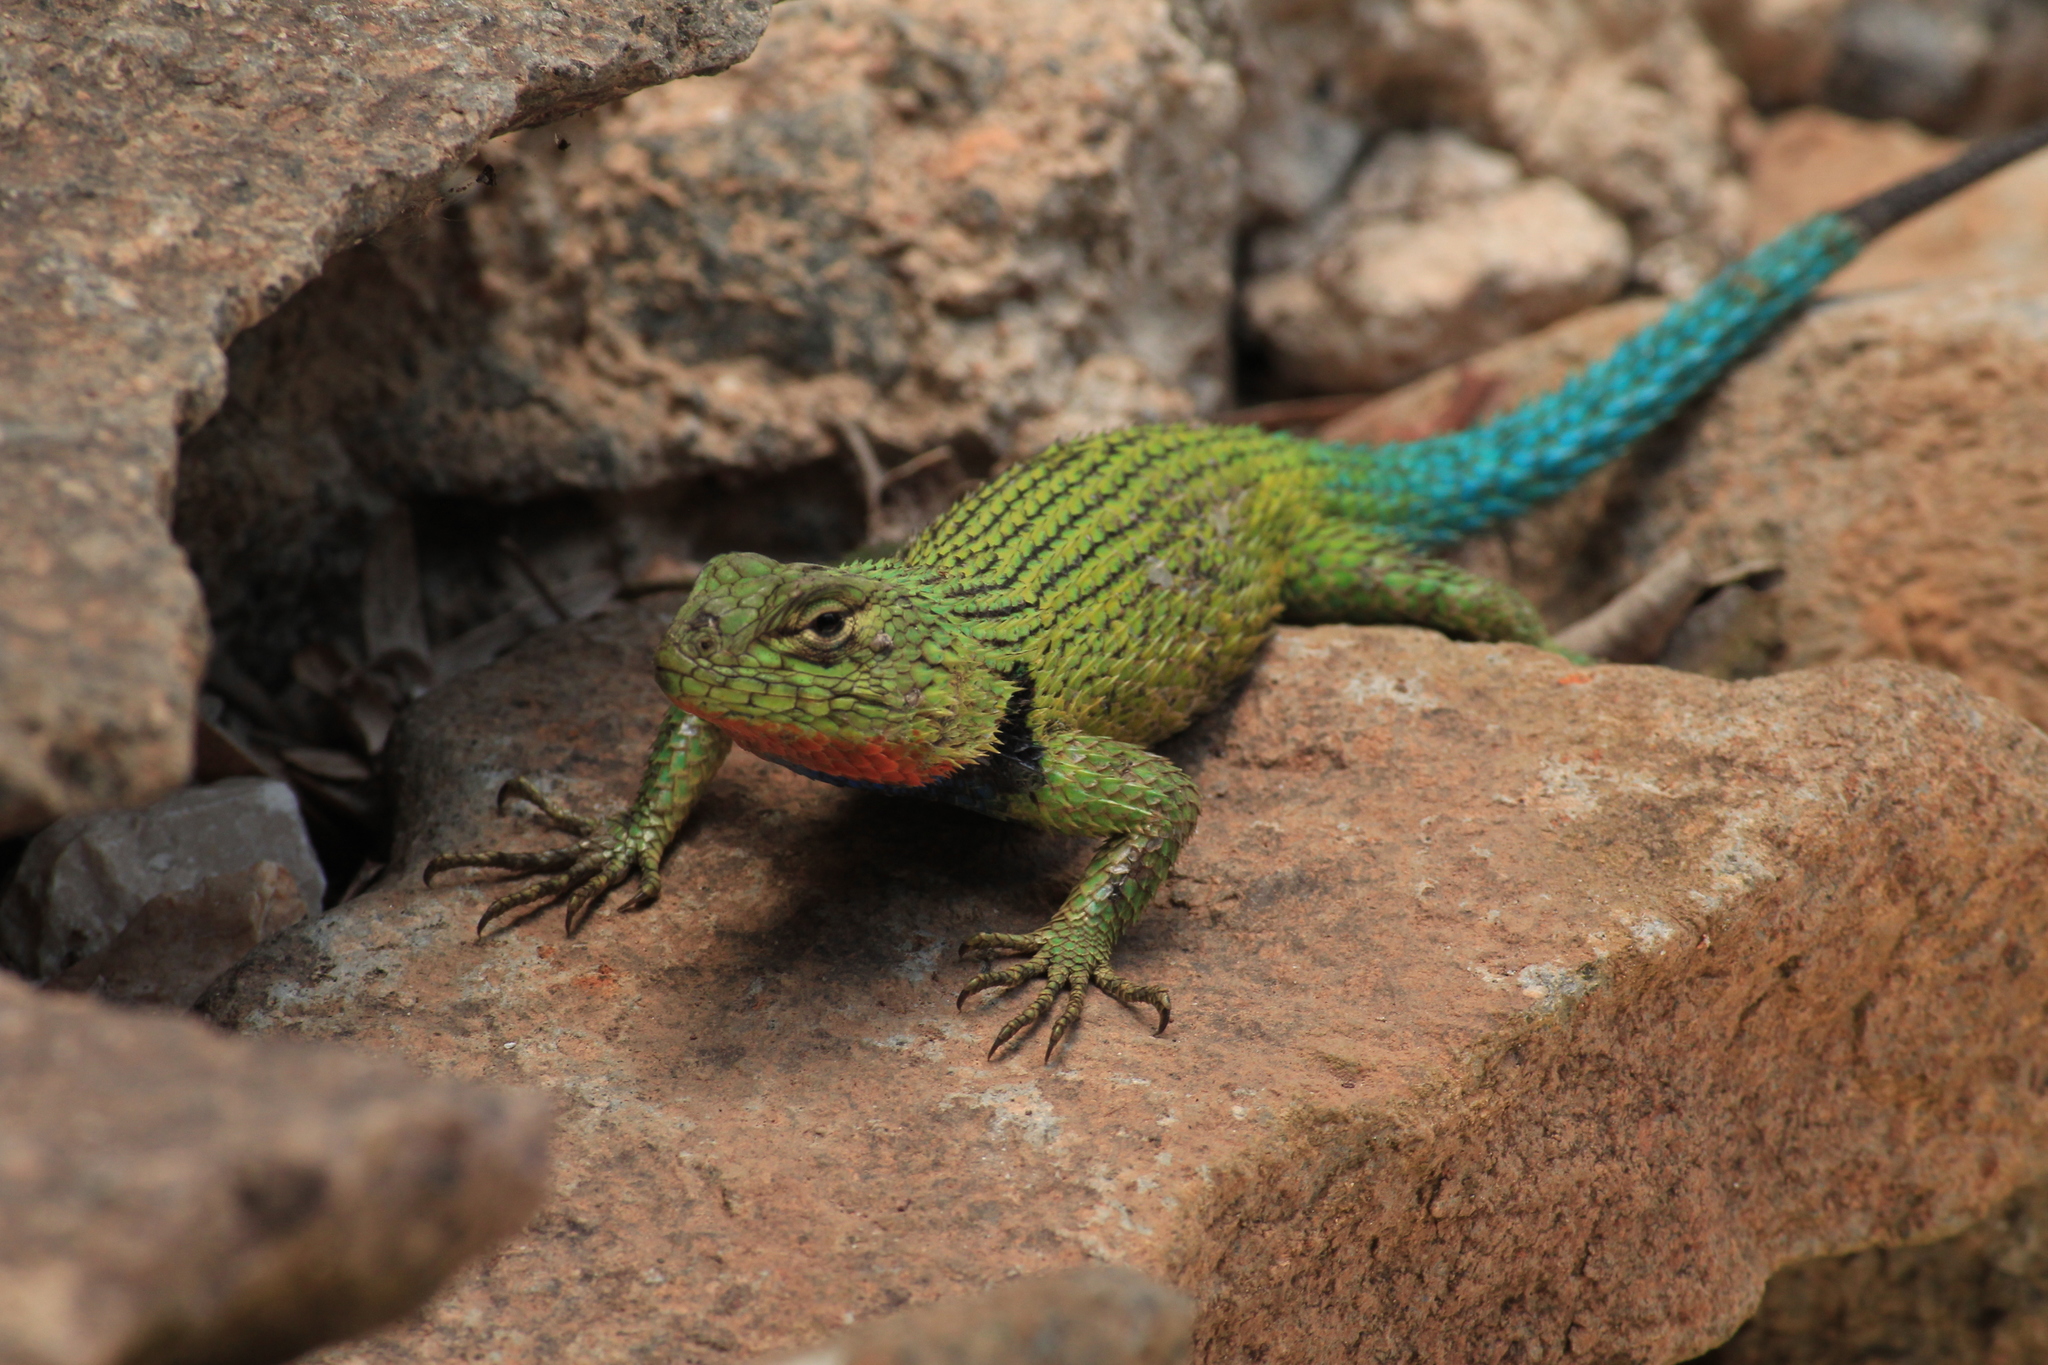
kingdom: Animalia
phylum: Chordata
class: Squamata
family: Phrynosomatidae
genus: Sceloporus
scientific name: Sceloporus malachiticus
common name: Green spiny lizard
